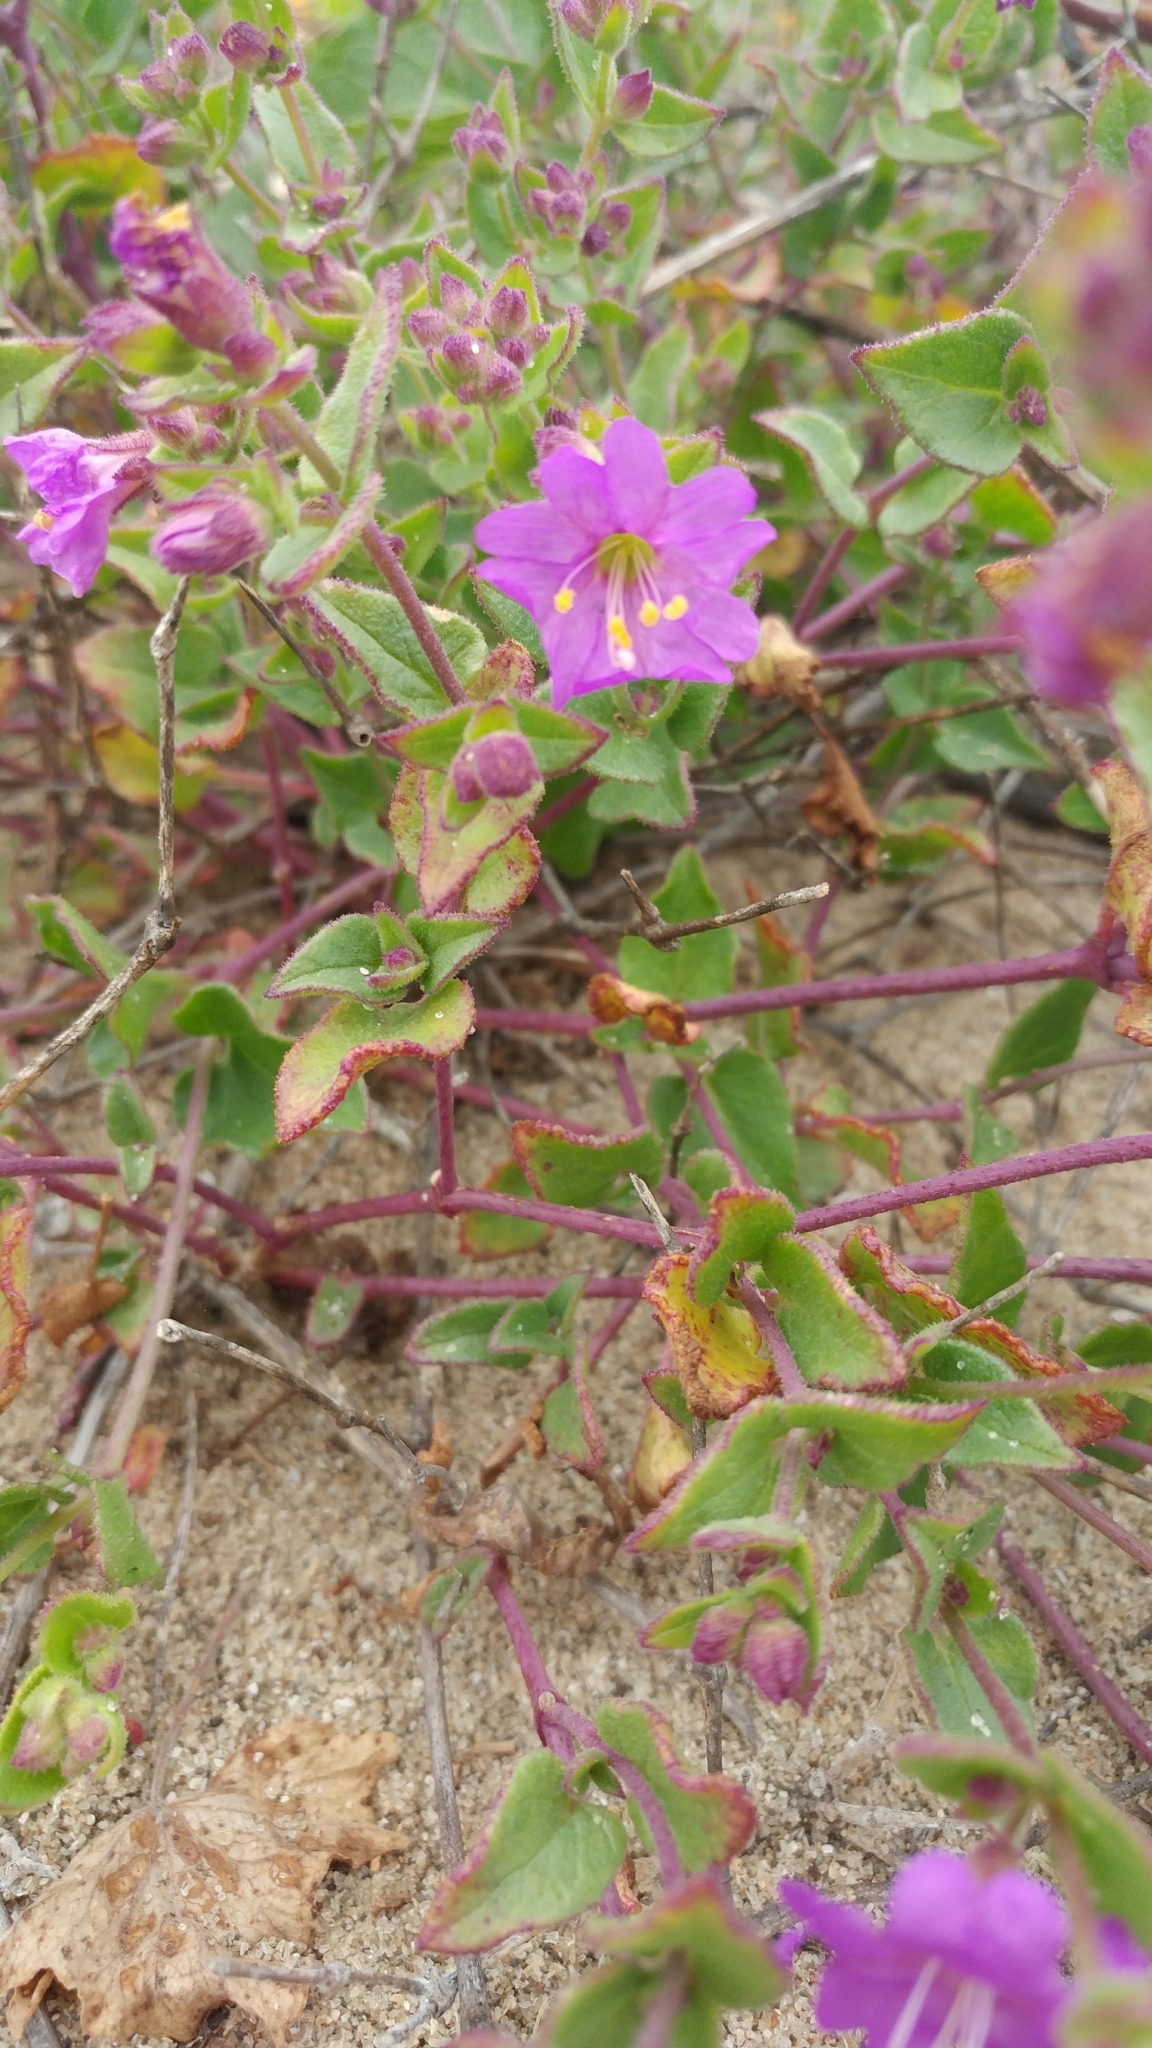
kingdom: Plantae
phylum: Tracheophyta
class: Magnoliopsida
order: Caryophyllales
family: Nyctaginaceae
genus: Mirabilis
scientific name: Mirabilis laevis
